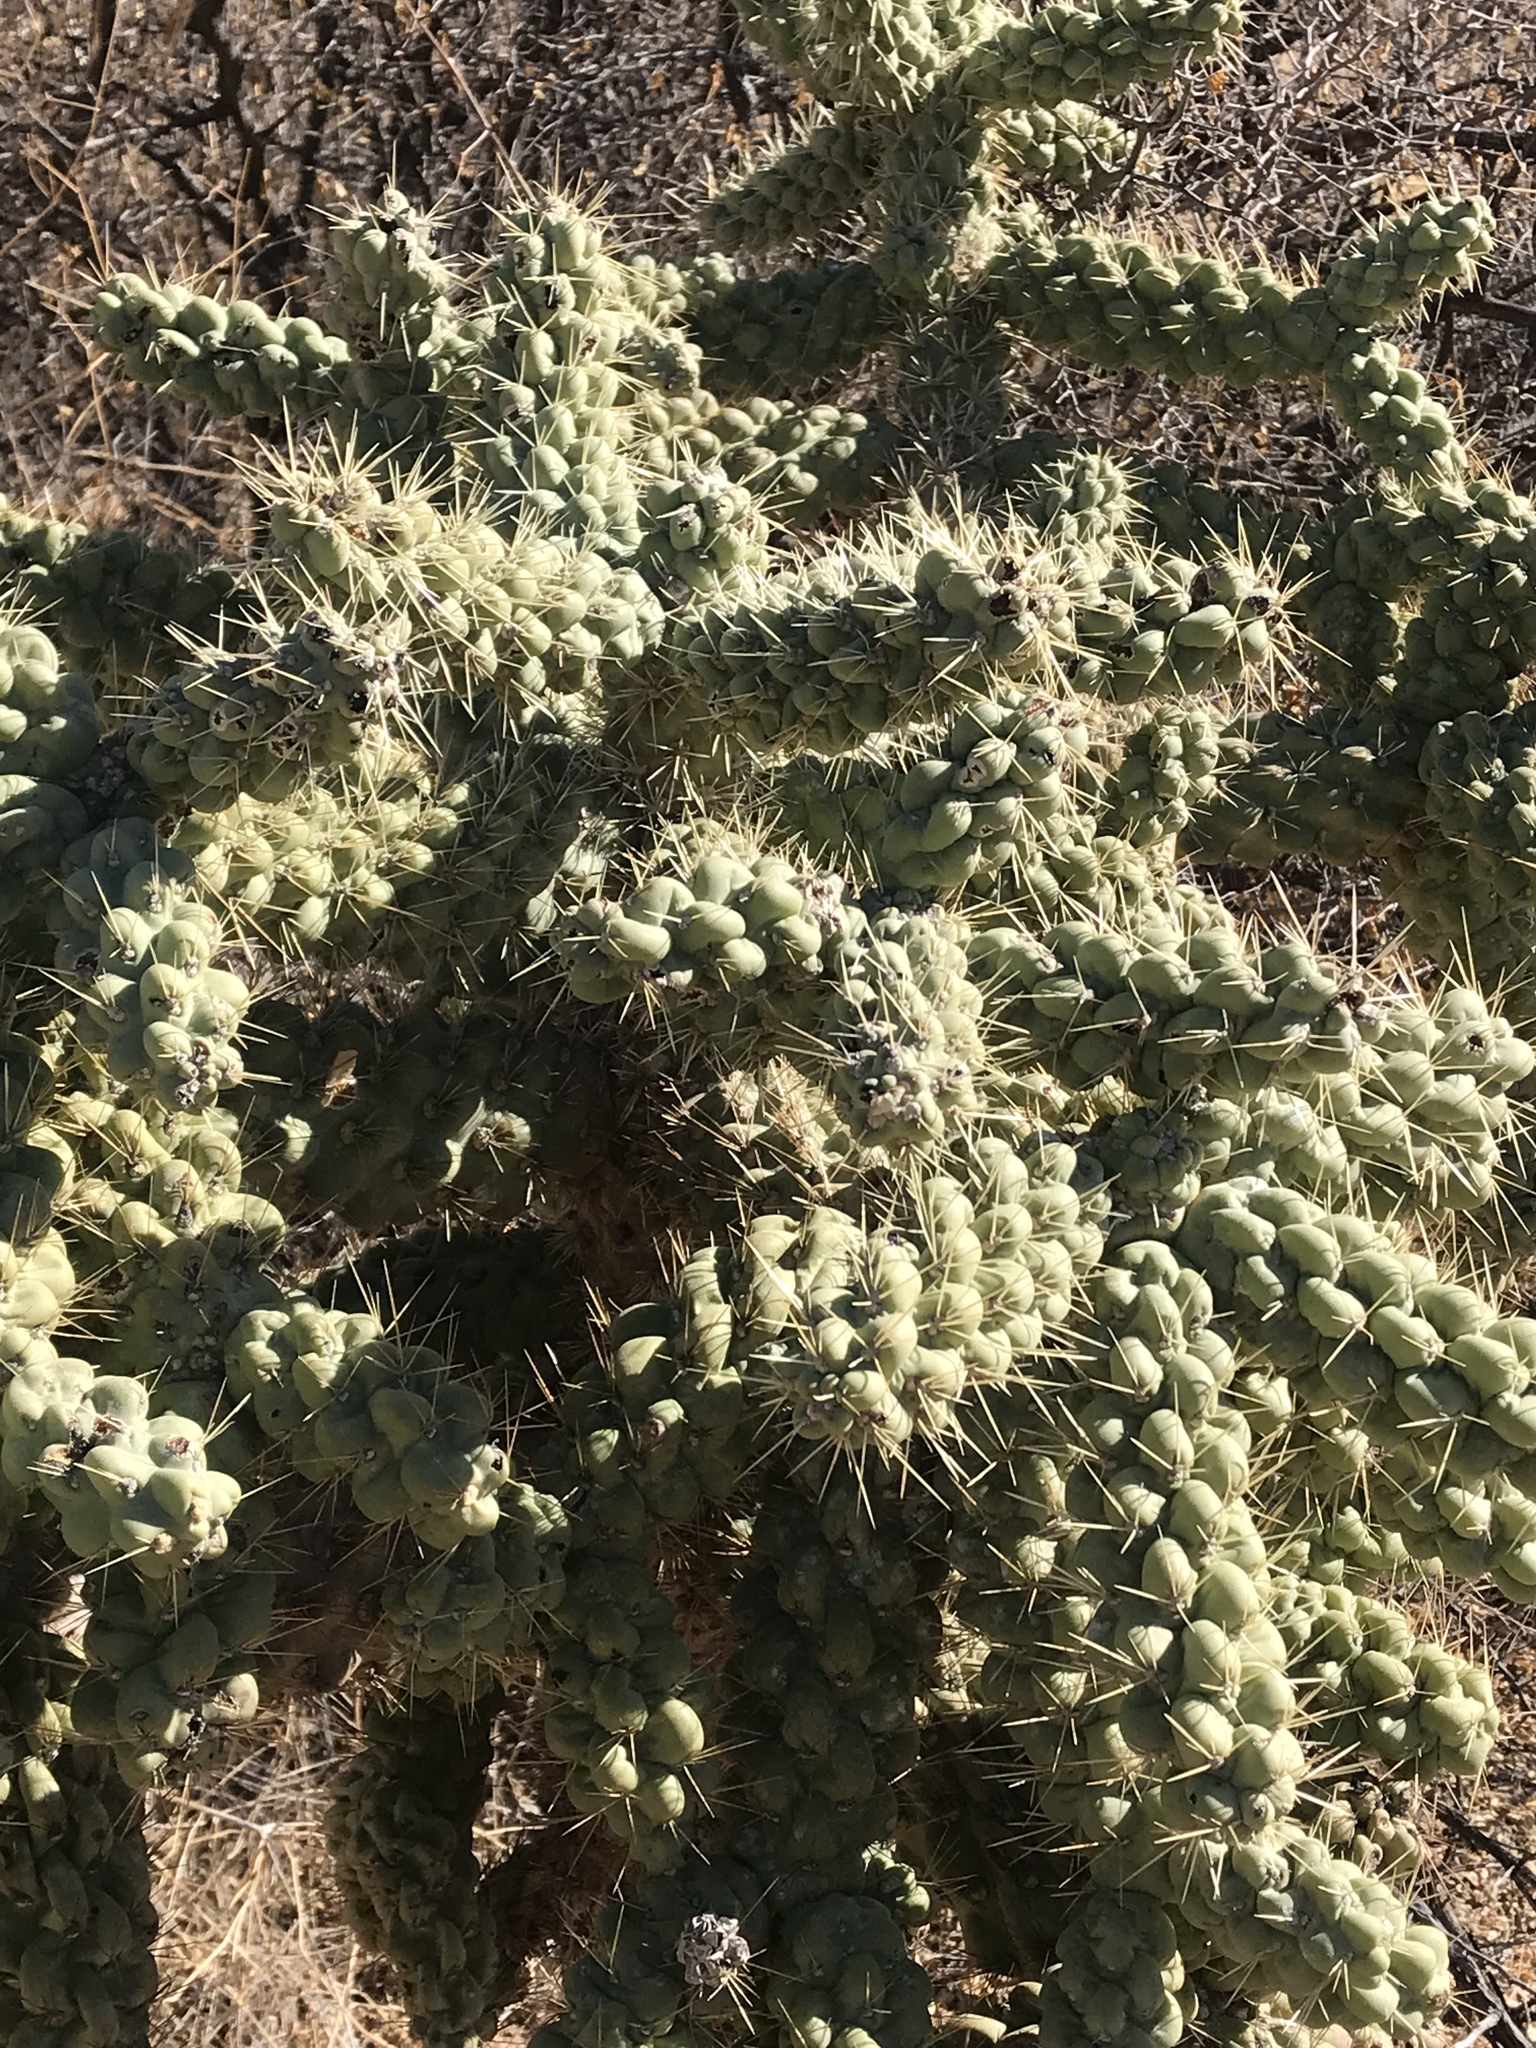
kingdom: Plantae
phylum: Tracheophyta
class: Magnoliopsida
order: Caryophyllales
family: Cactaceae
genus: Cylindropuntia
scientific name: Cylindropuntia fulgida
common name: Jumping cholla
